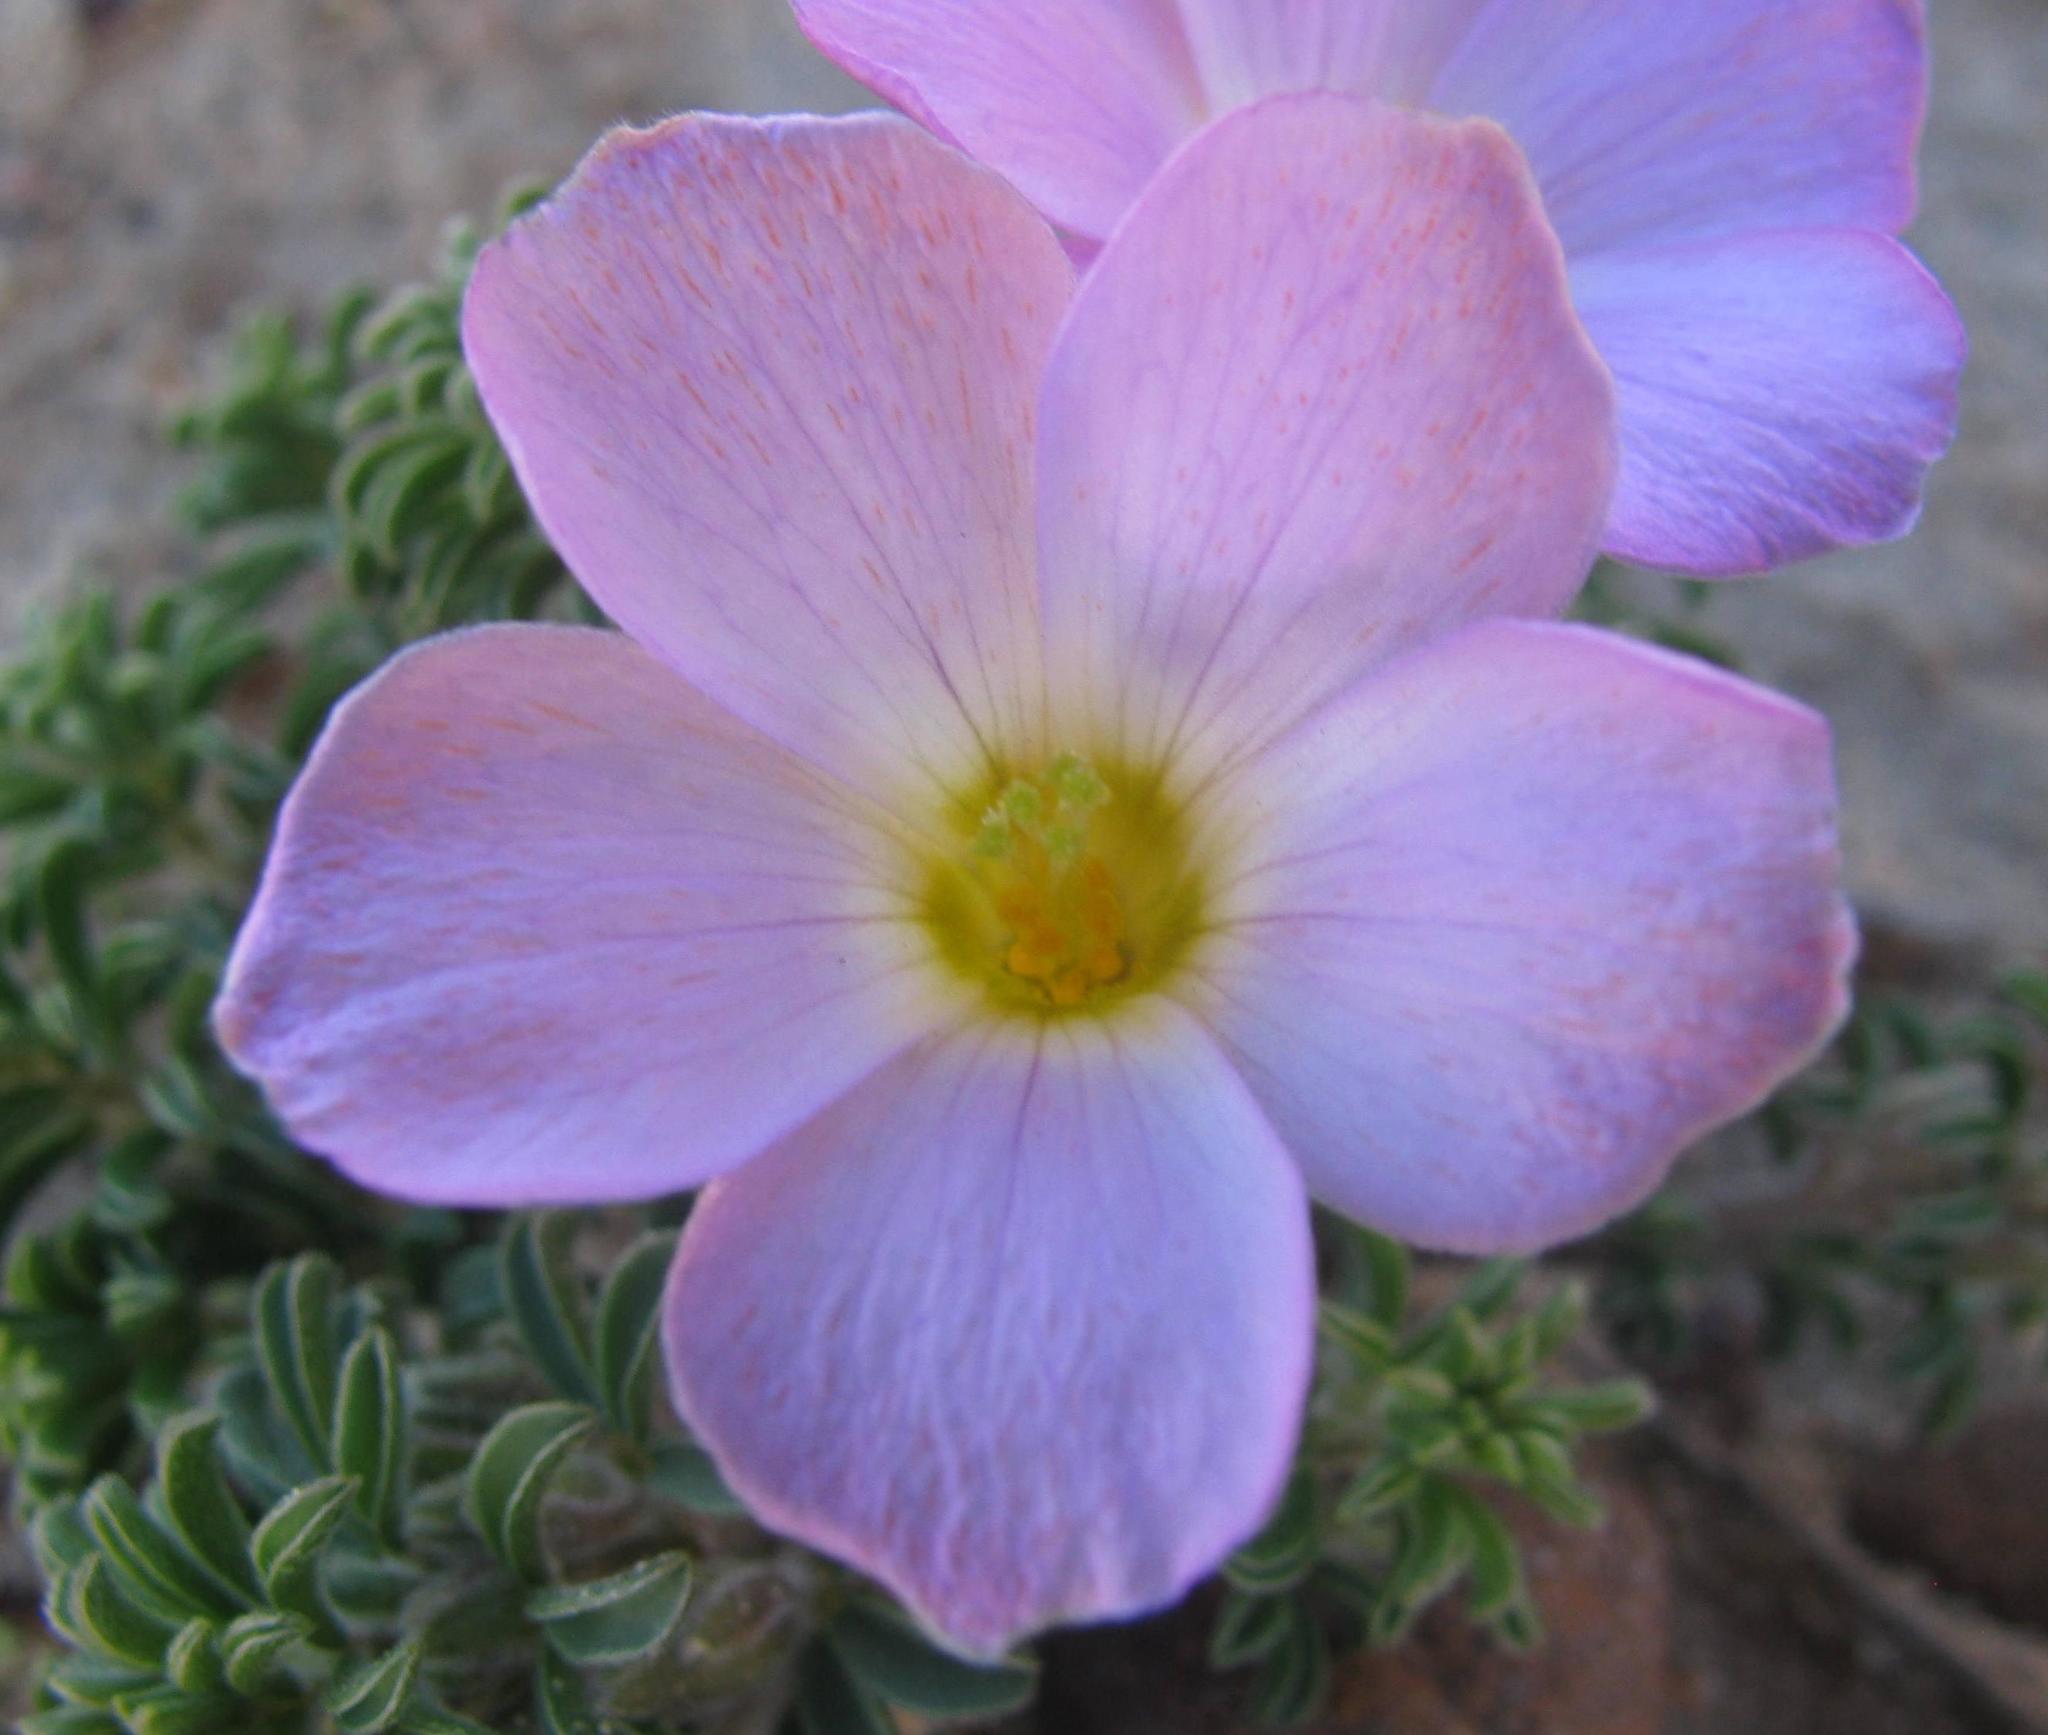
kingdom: Plantae
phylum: Tracheophyta
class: Magnoliopsida
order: Oxalidales
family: Oxalidaceae
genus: Oxalis
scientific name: Oxalis hirta
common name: Tropical woodsorrel
